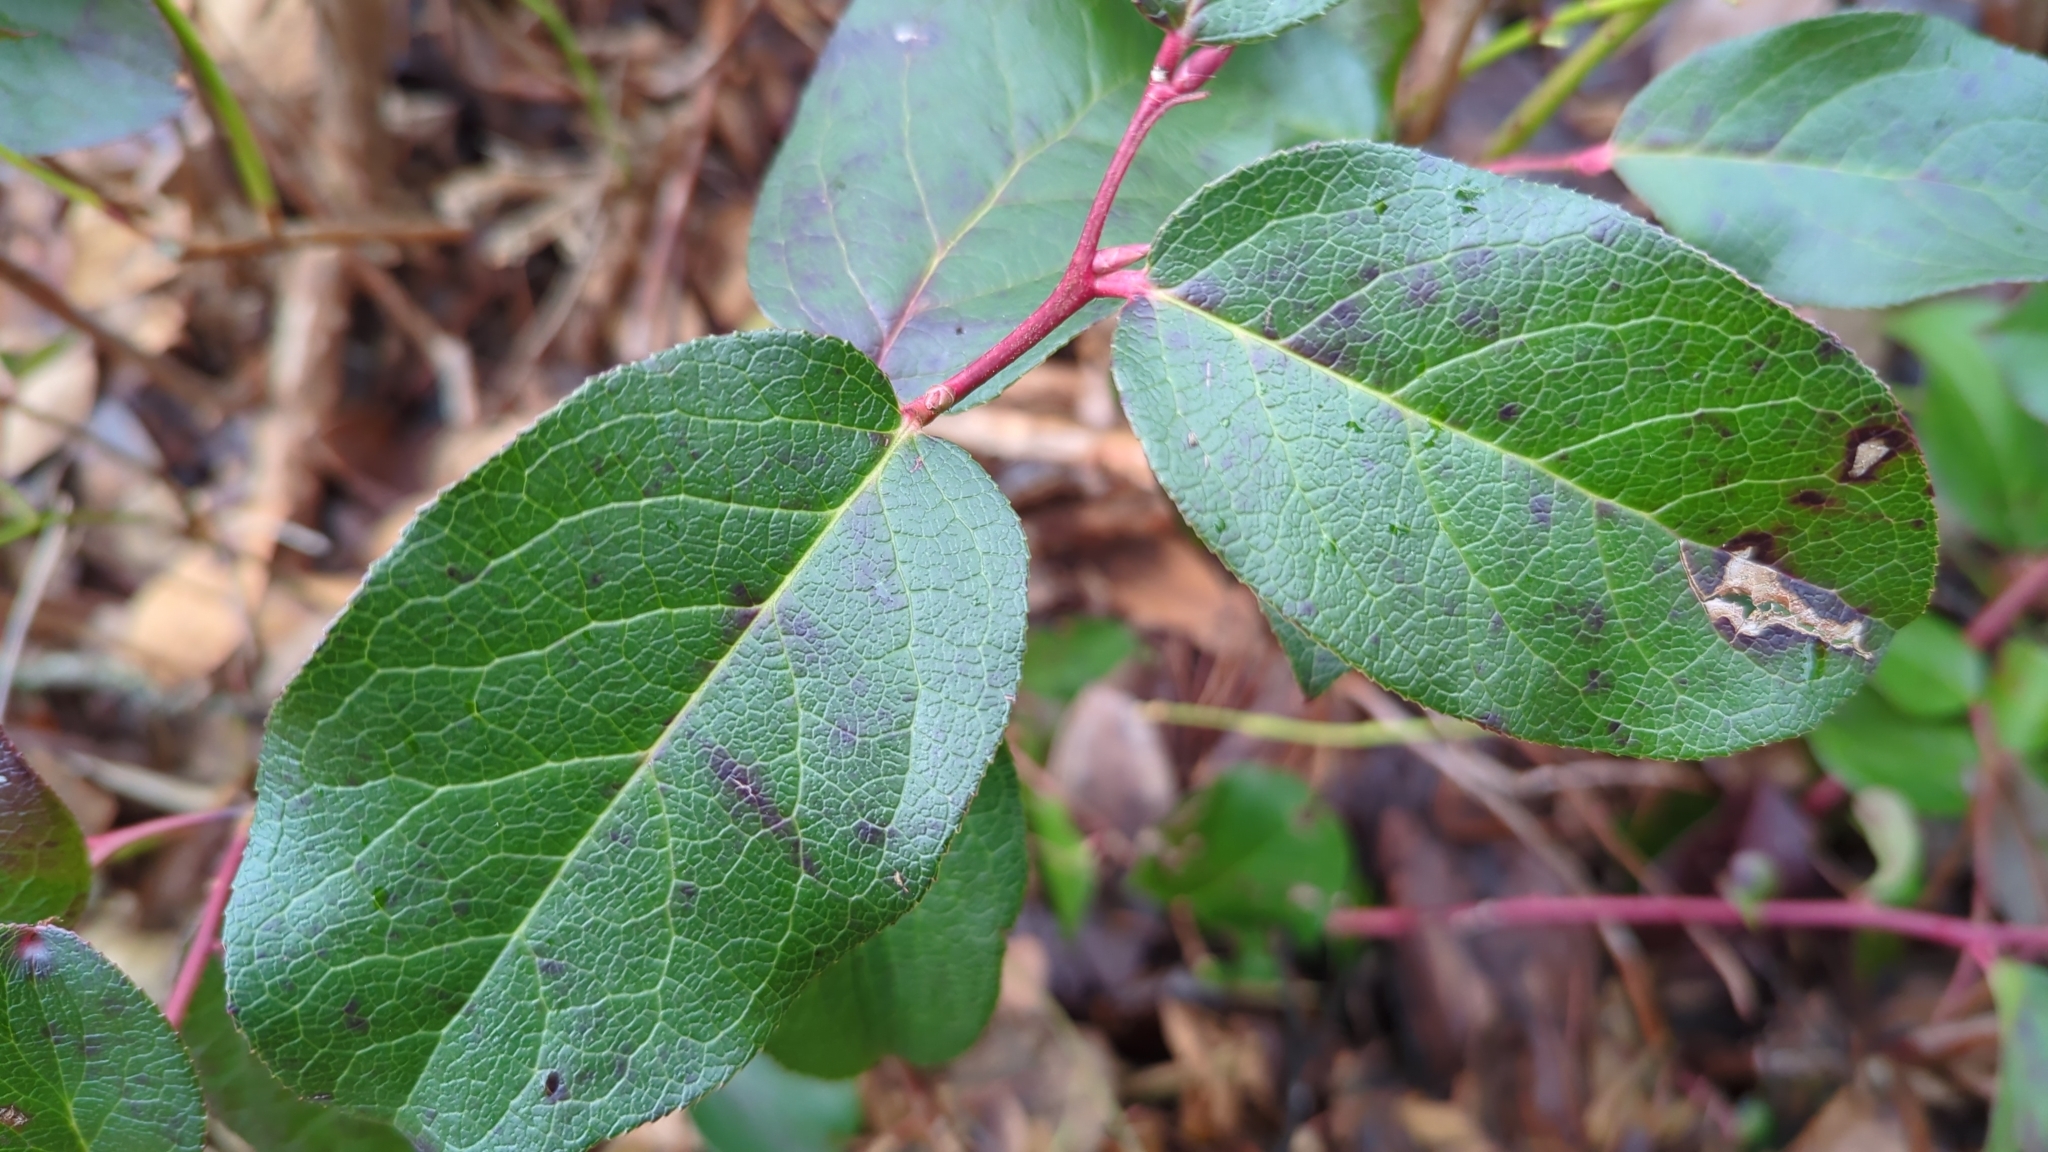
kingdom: Plantae
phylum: Tracheophyta
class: Magnoliopsida
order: Ericales
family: Ericaceae
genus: Gaultheria
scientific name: Gaultheria shallon
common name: Shallon
